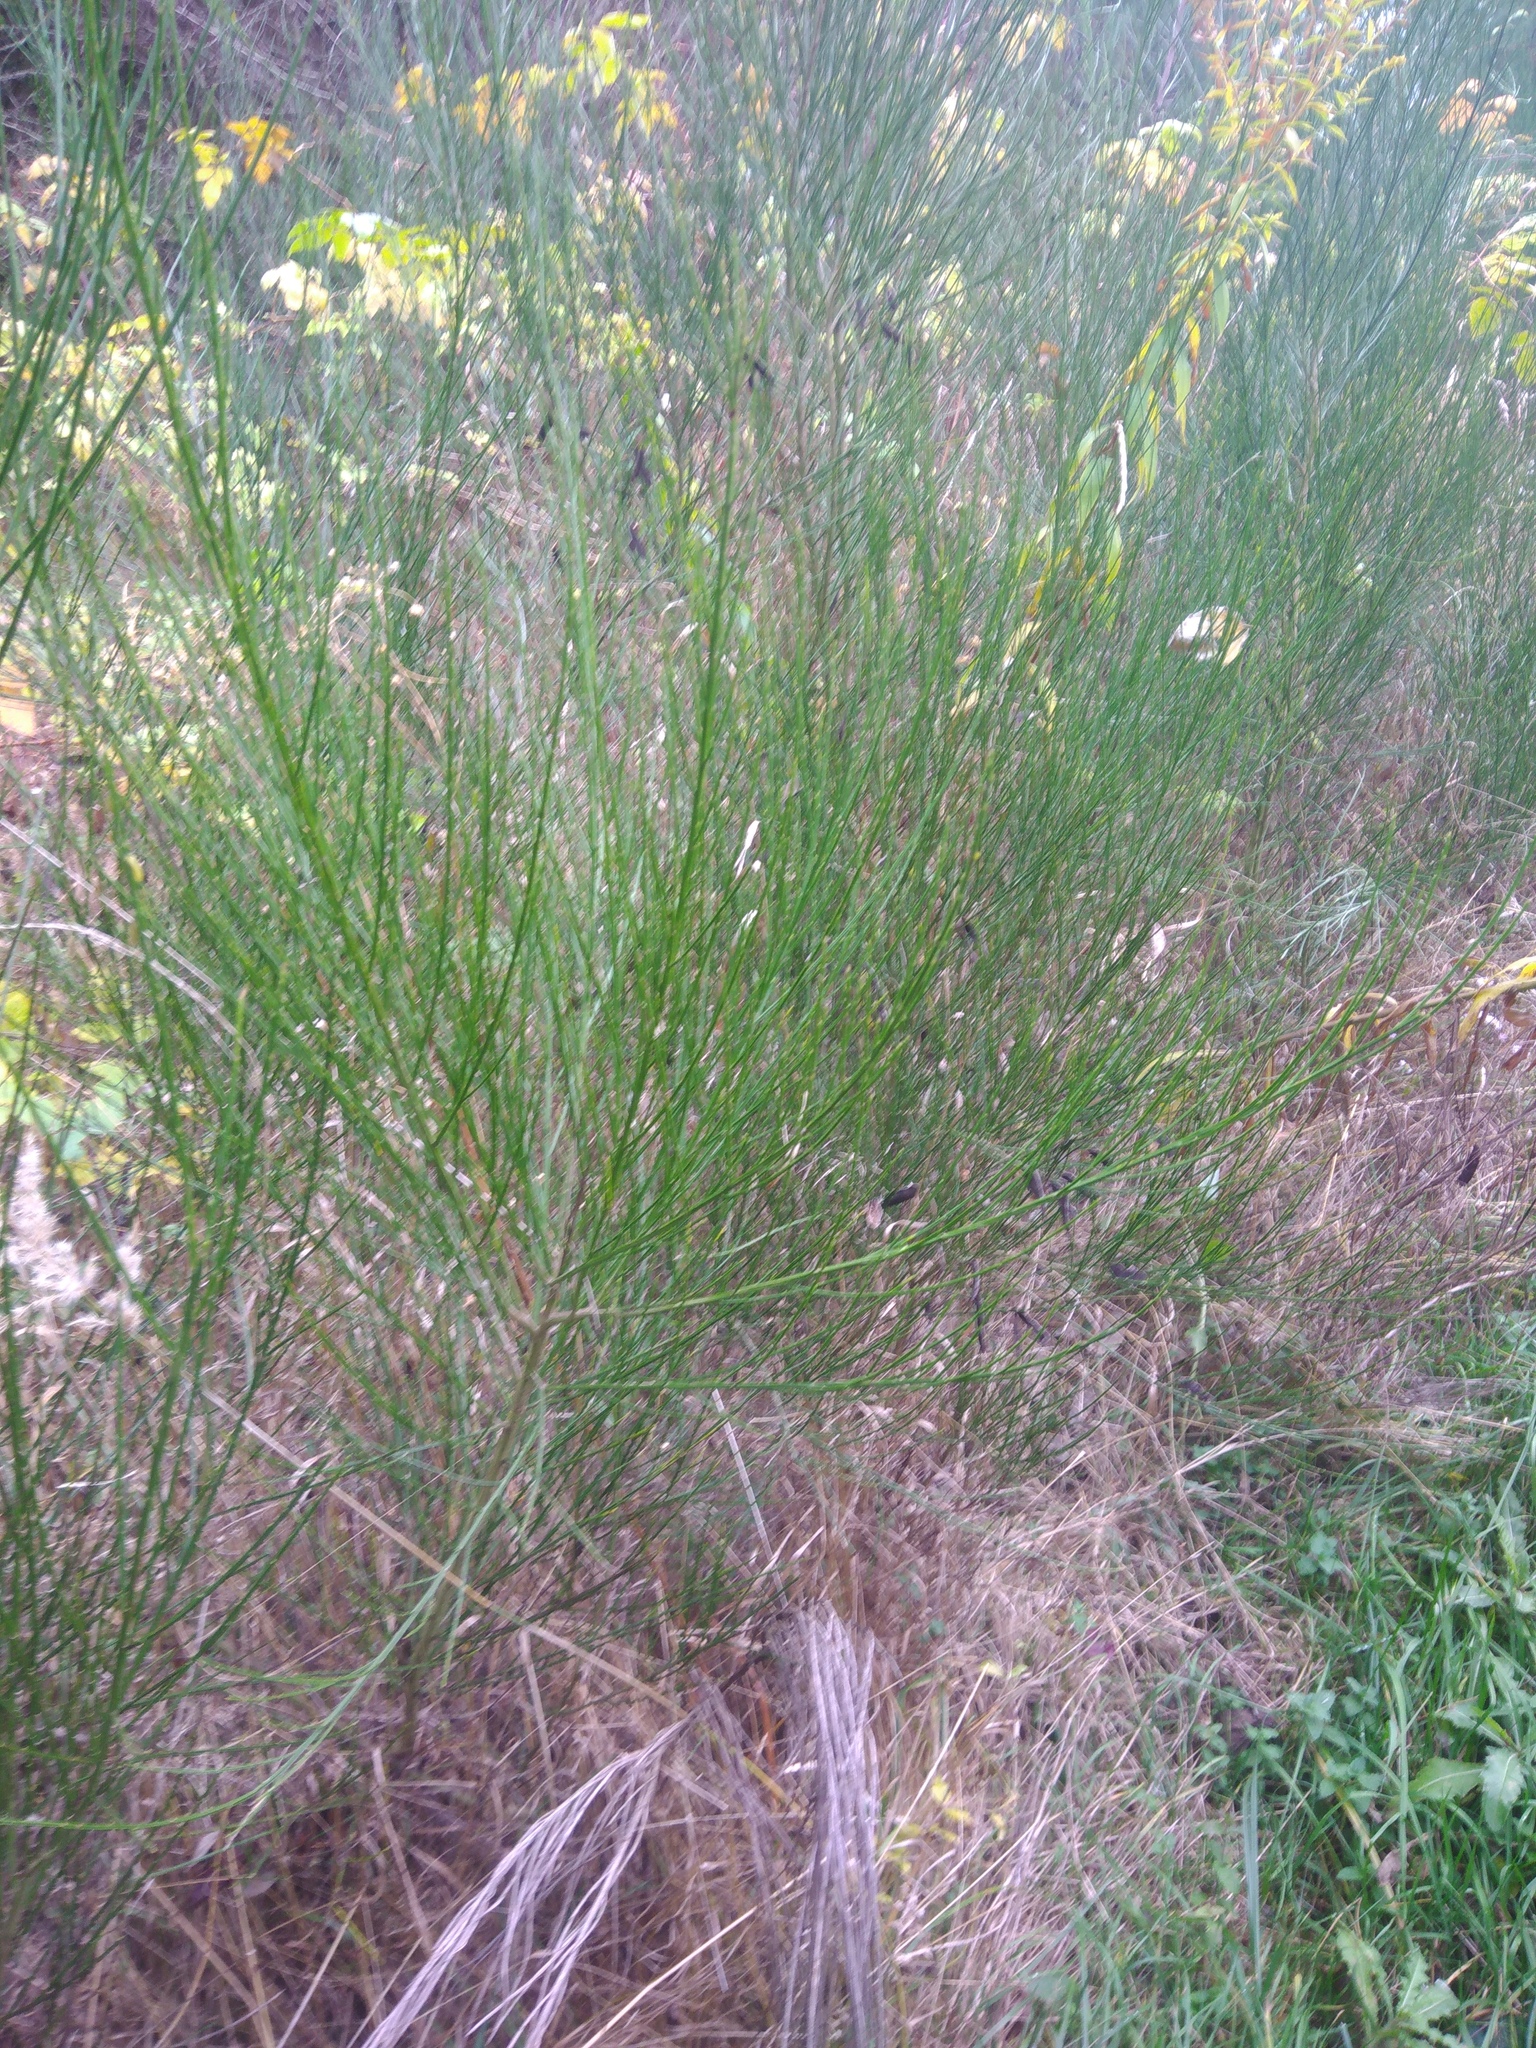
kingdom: Plantae
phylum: Tracheophyta
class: Magnoliopsida
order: Fabales
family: Fabaceae
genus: Cytisus
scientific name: Cytisus scoparius
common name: Scotch broom
